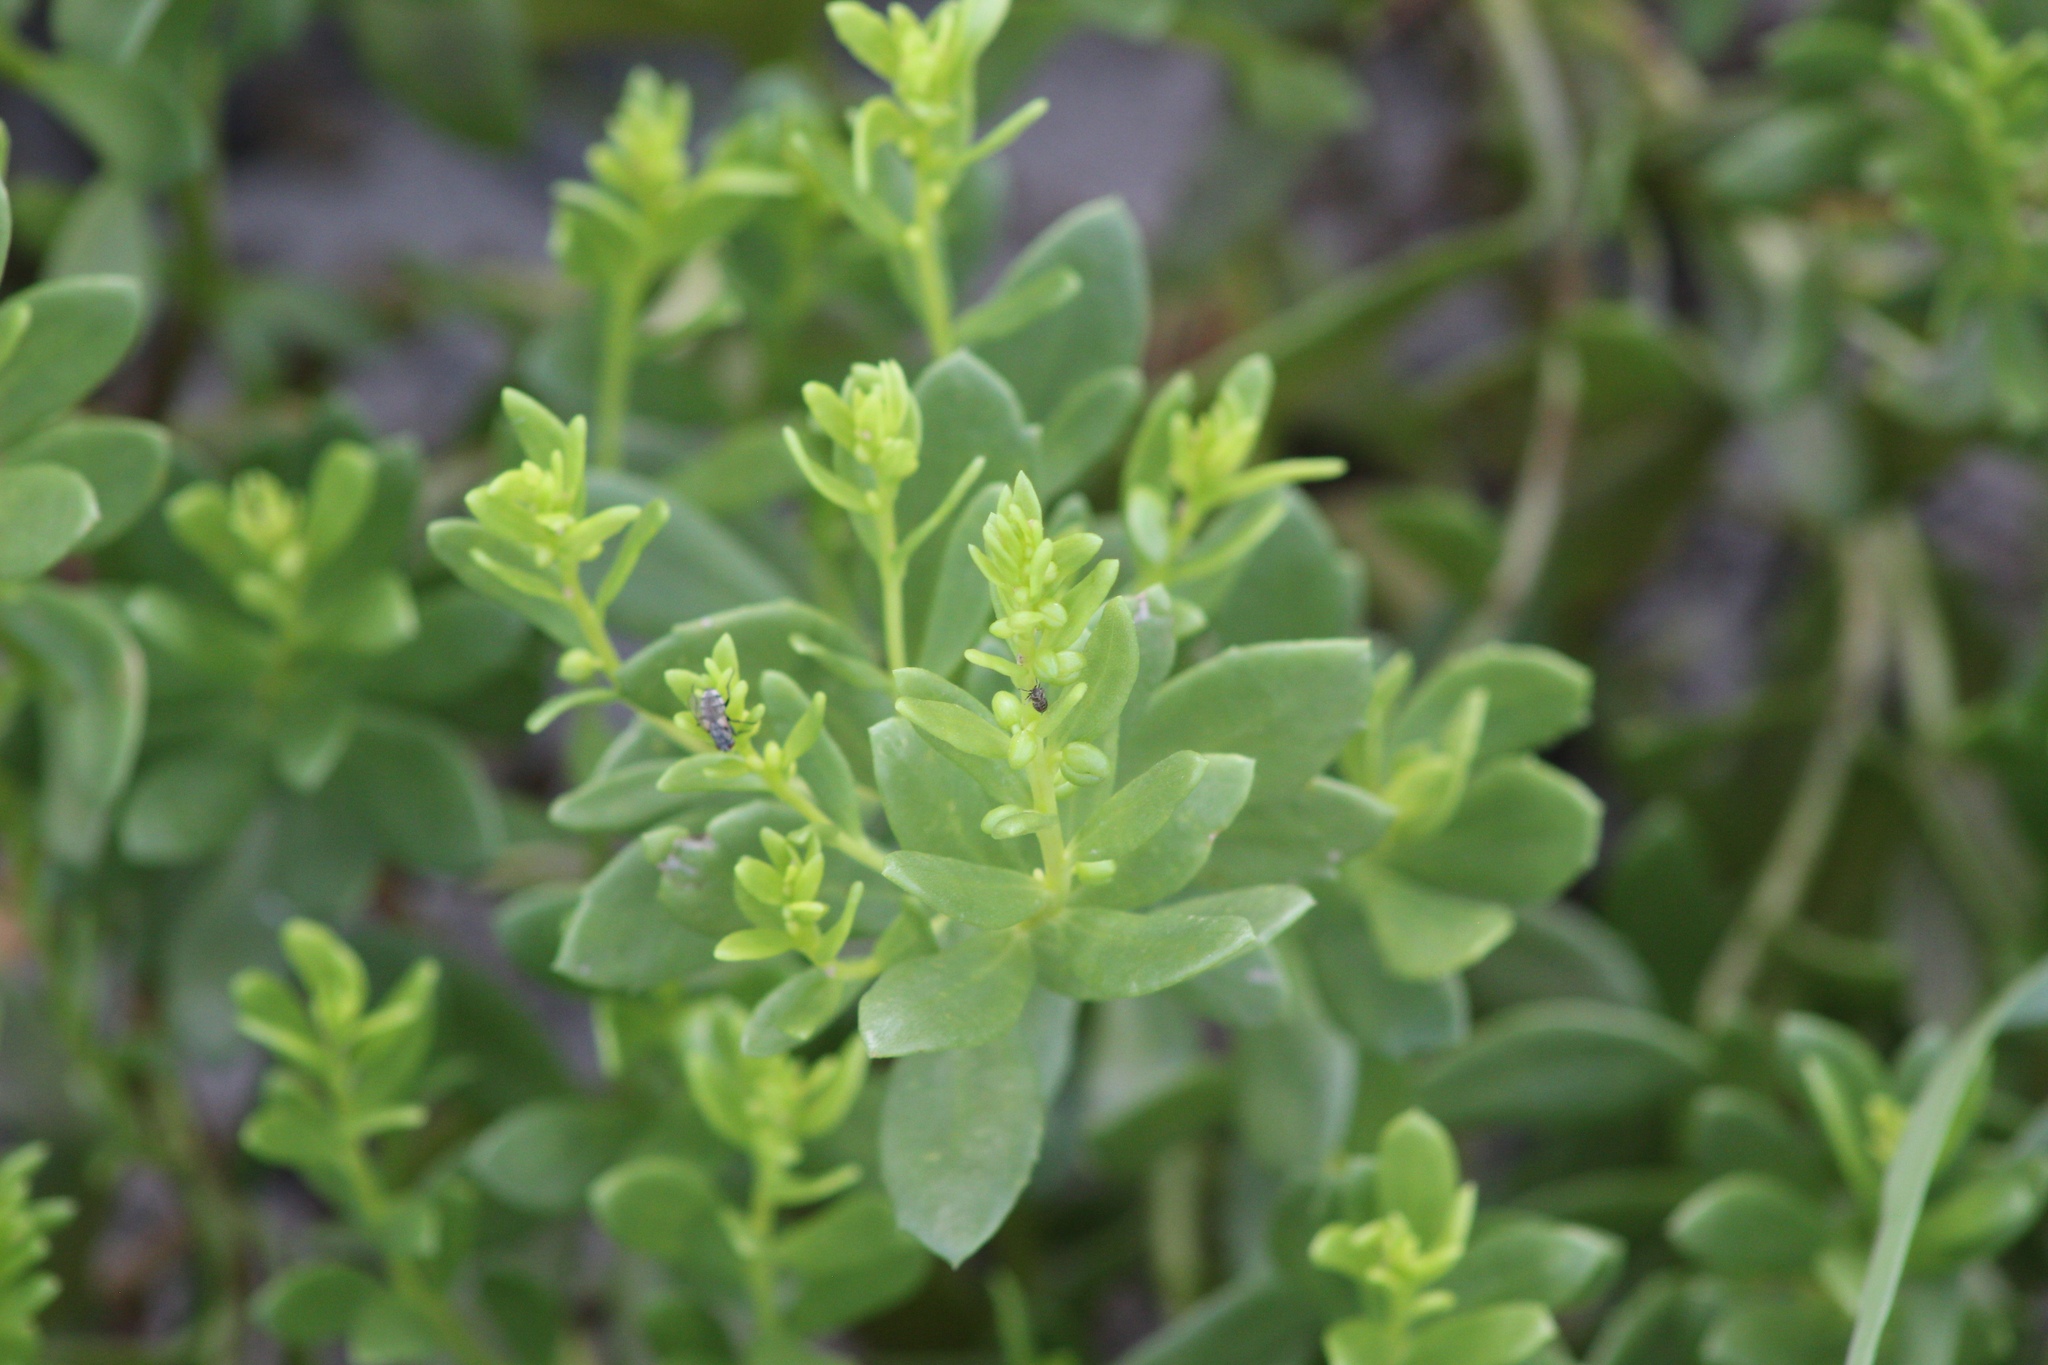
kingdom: Plantae
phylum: Tracheophyta
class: Magnoliopsida
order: Asterales
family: Asteraceae
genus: Iva
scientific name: Iva imbricata
